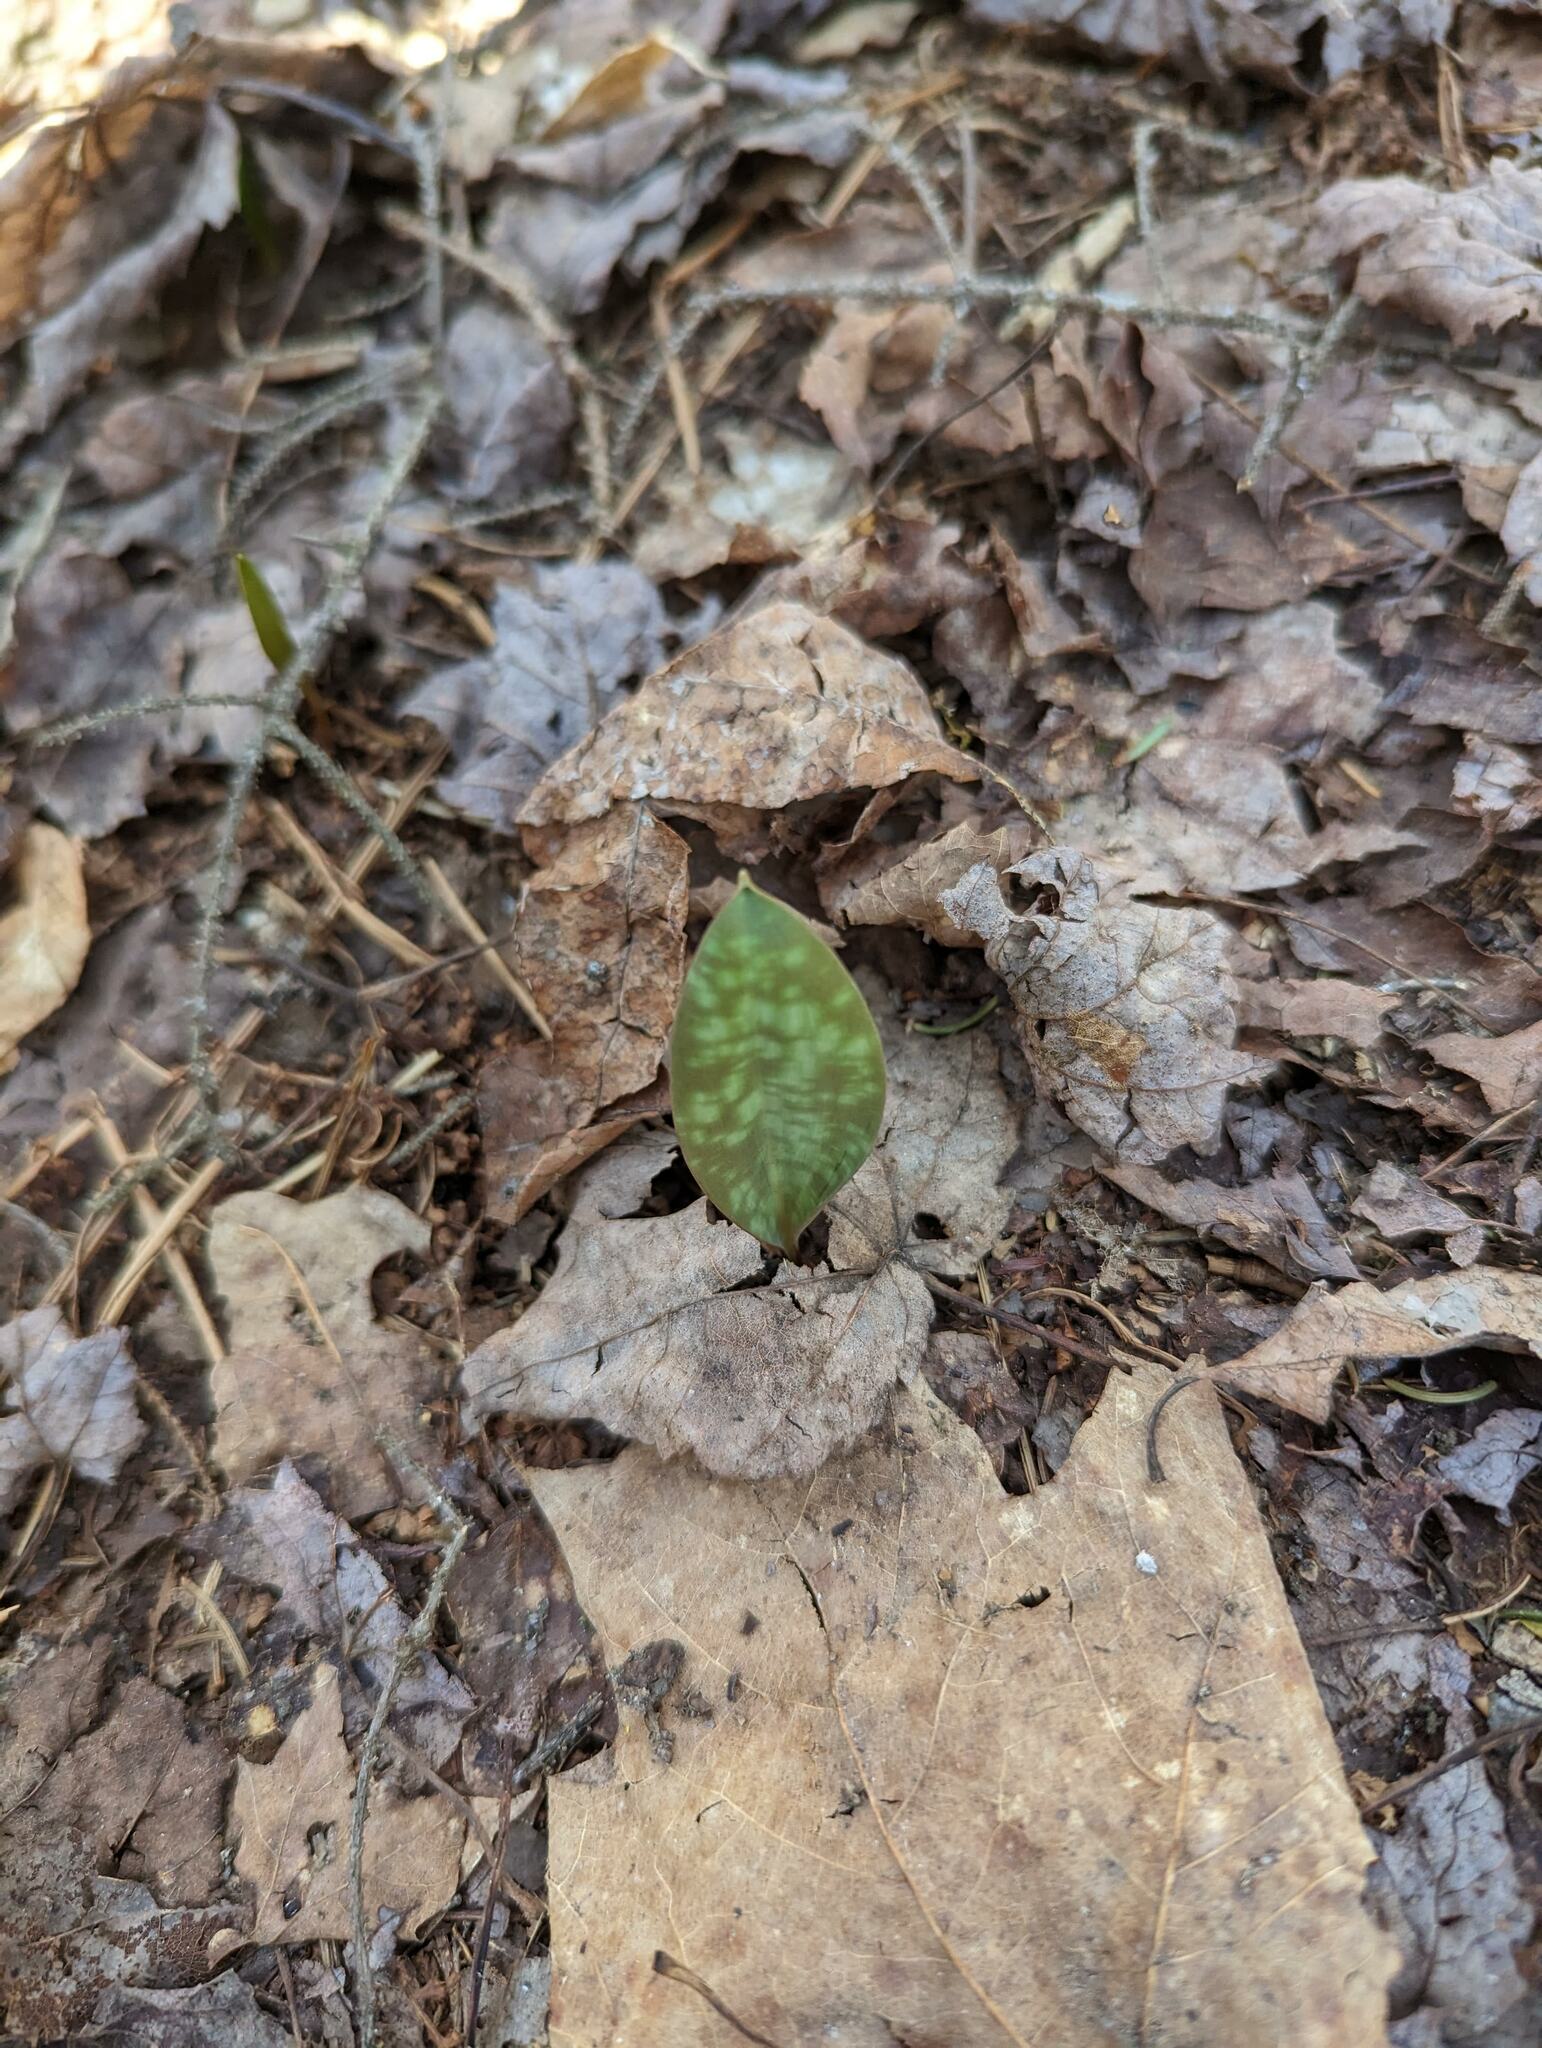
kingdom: Plantae
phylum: Tracheophyta
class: Liliopsida
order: Liliales
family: Liliaceae
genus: Erythronium
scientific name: Erythronium americanum
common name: Yellow adder's-tongue
